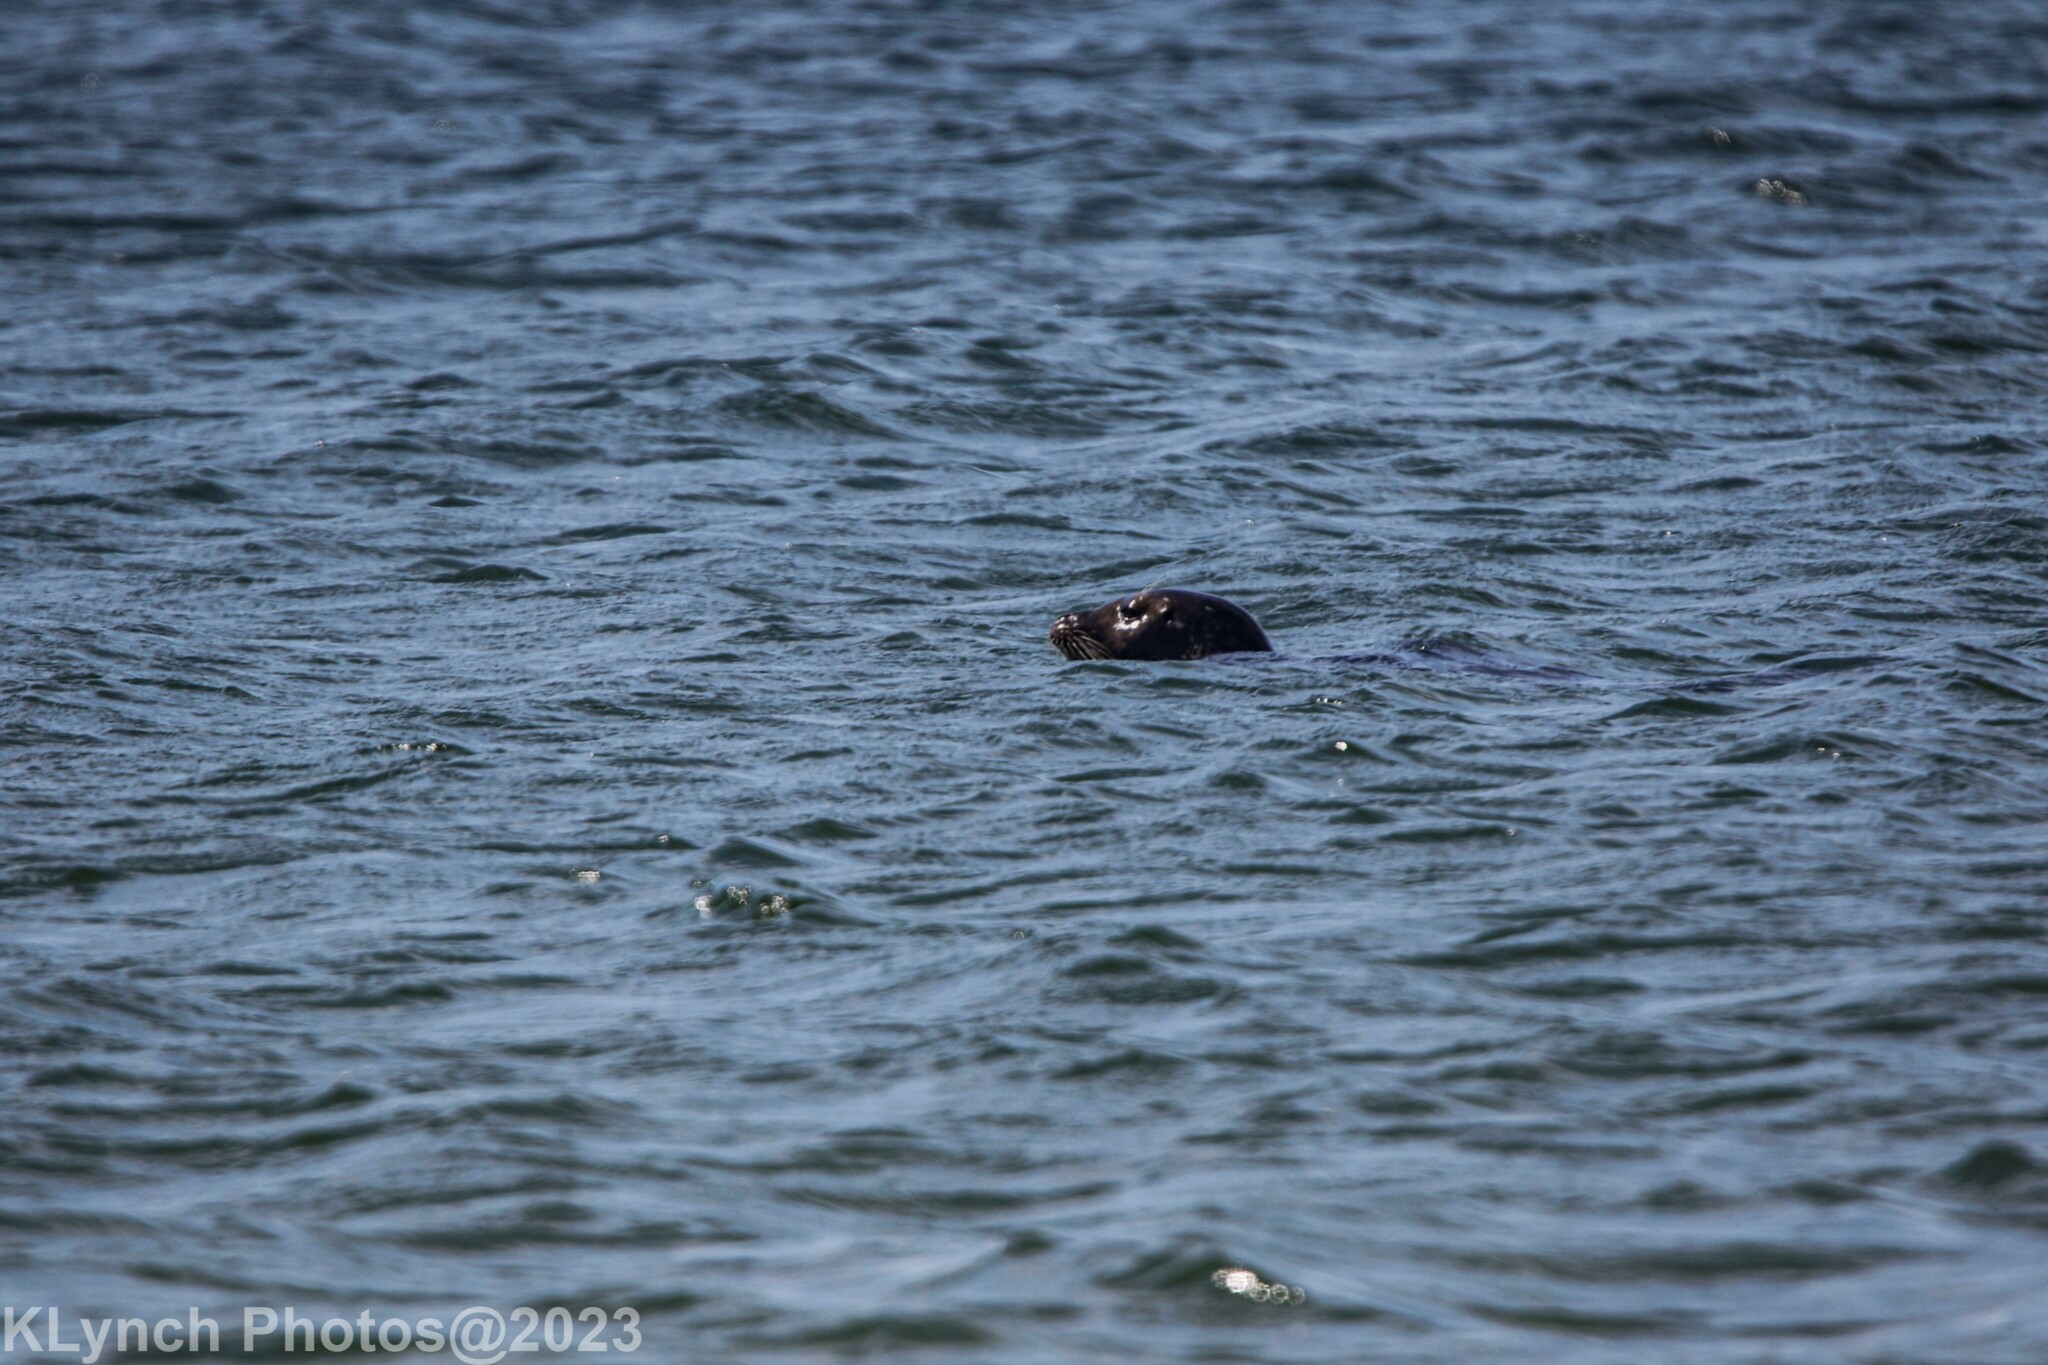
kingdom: Animalia
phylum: Chordata
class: Mammalia
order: Carnivora
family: Phocidae
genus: Phoca
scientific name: Phoca vitulina
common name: Harbor seal
